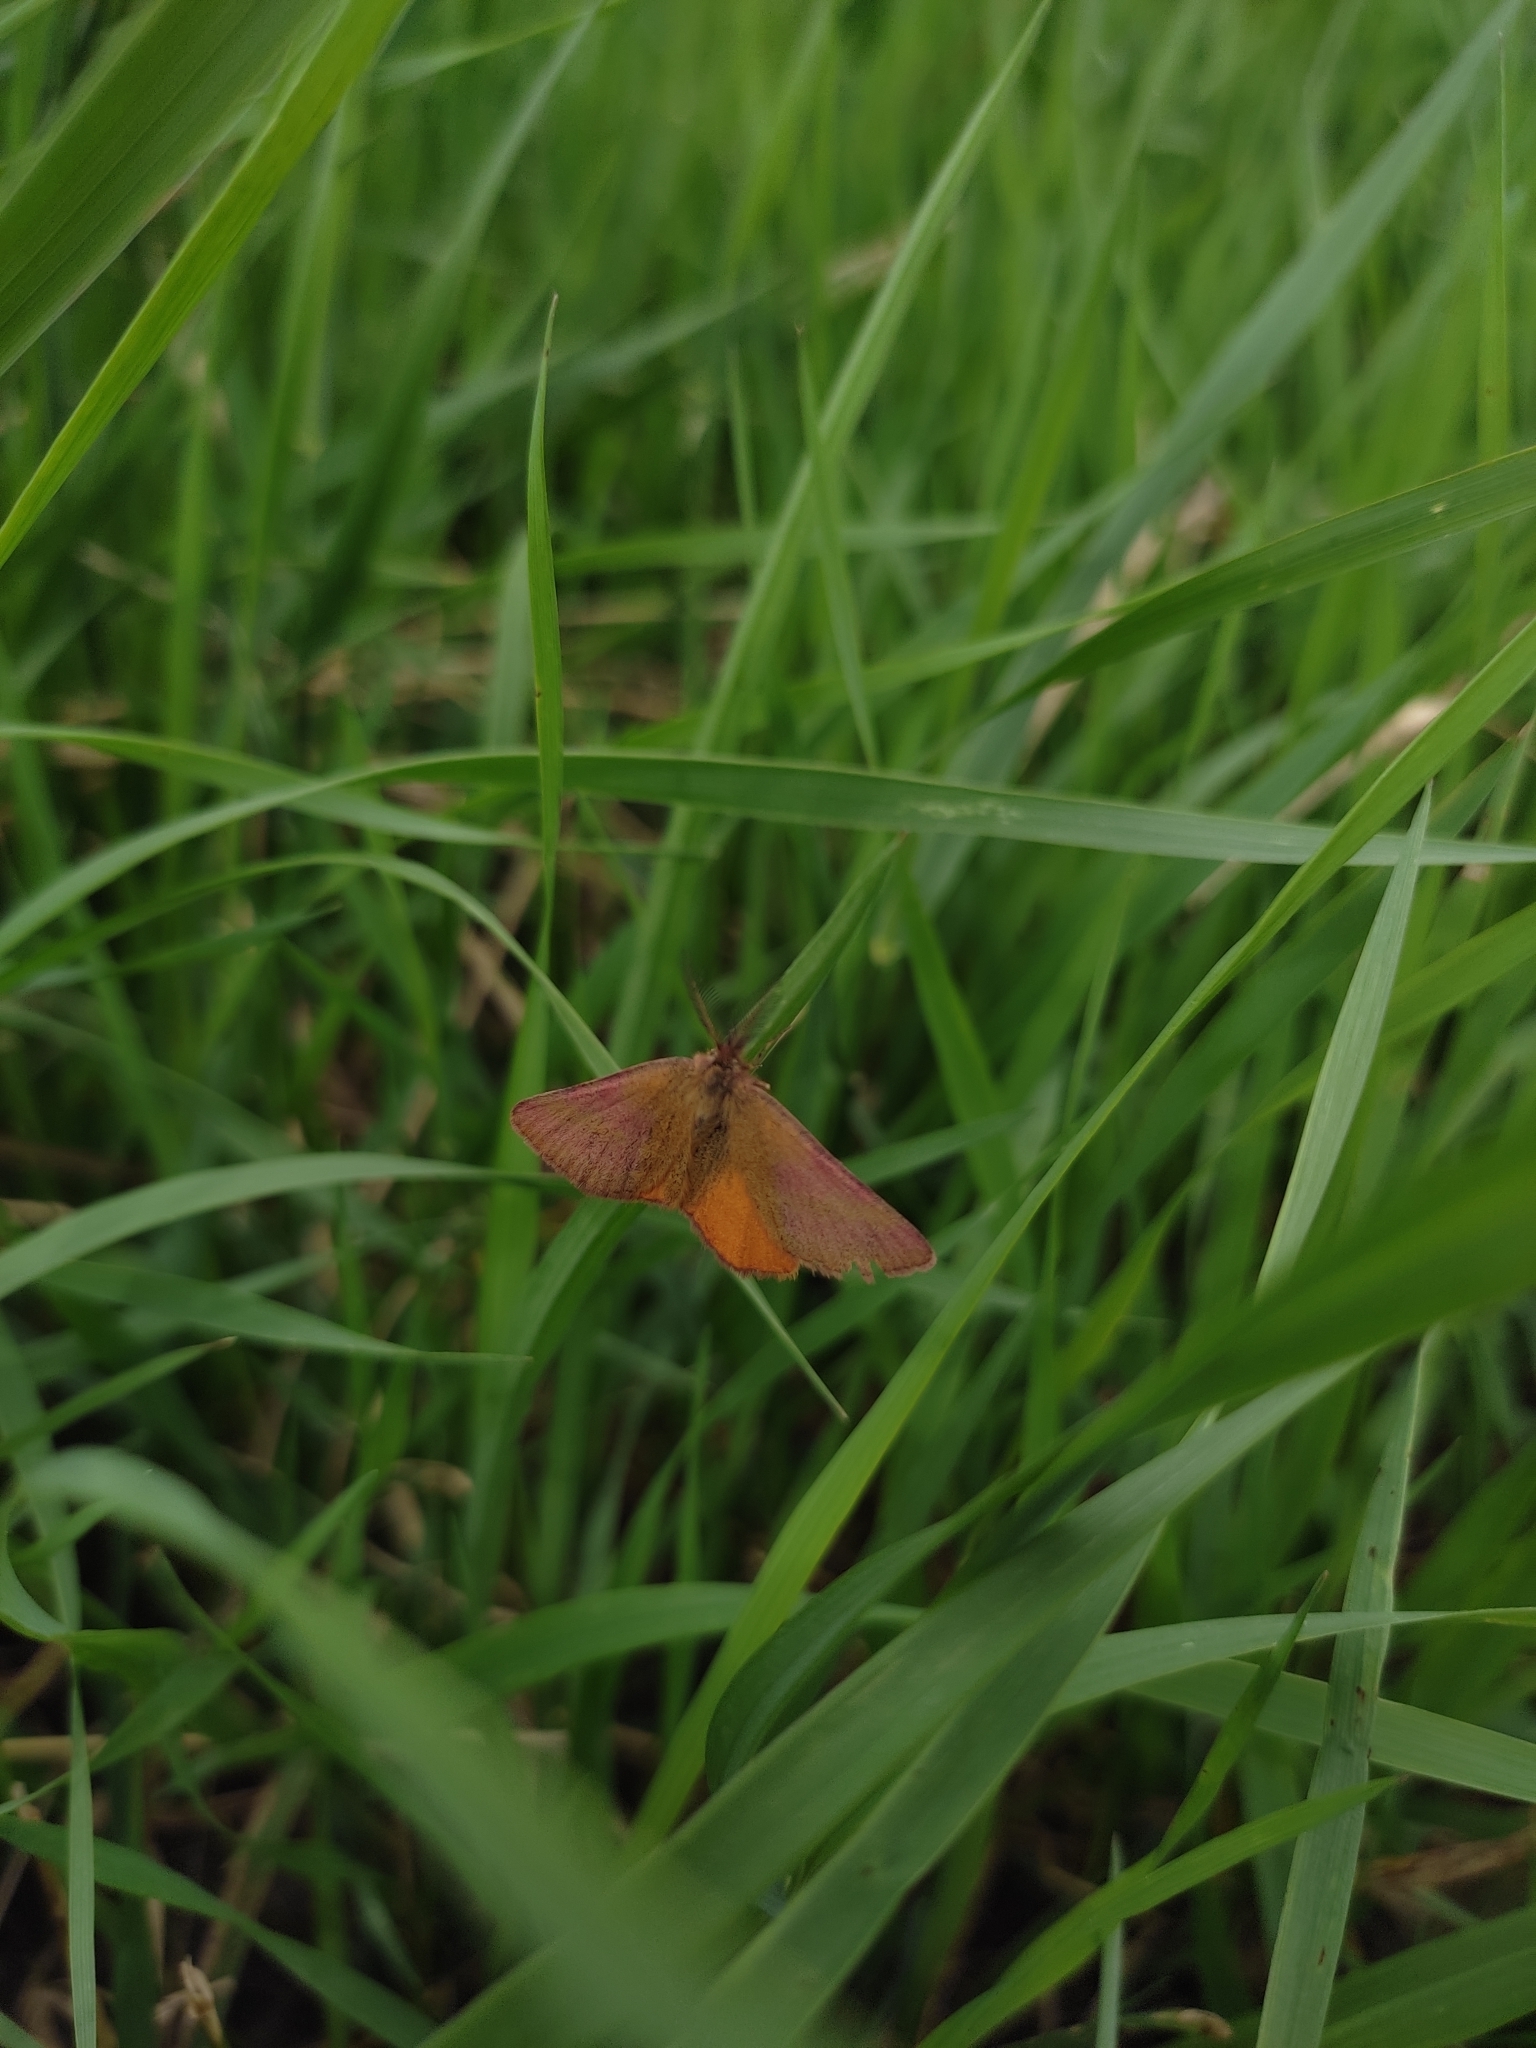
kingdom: Animalia
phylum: Arthropoda
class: Insecta
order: Lepidoptera
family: Geometridae
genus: Lythria
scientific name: Lythria purpuraria
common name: Purple-barred yellow
